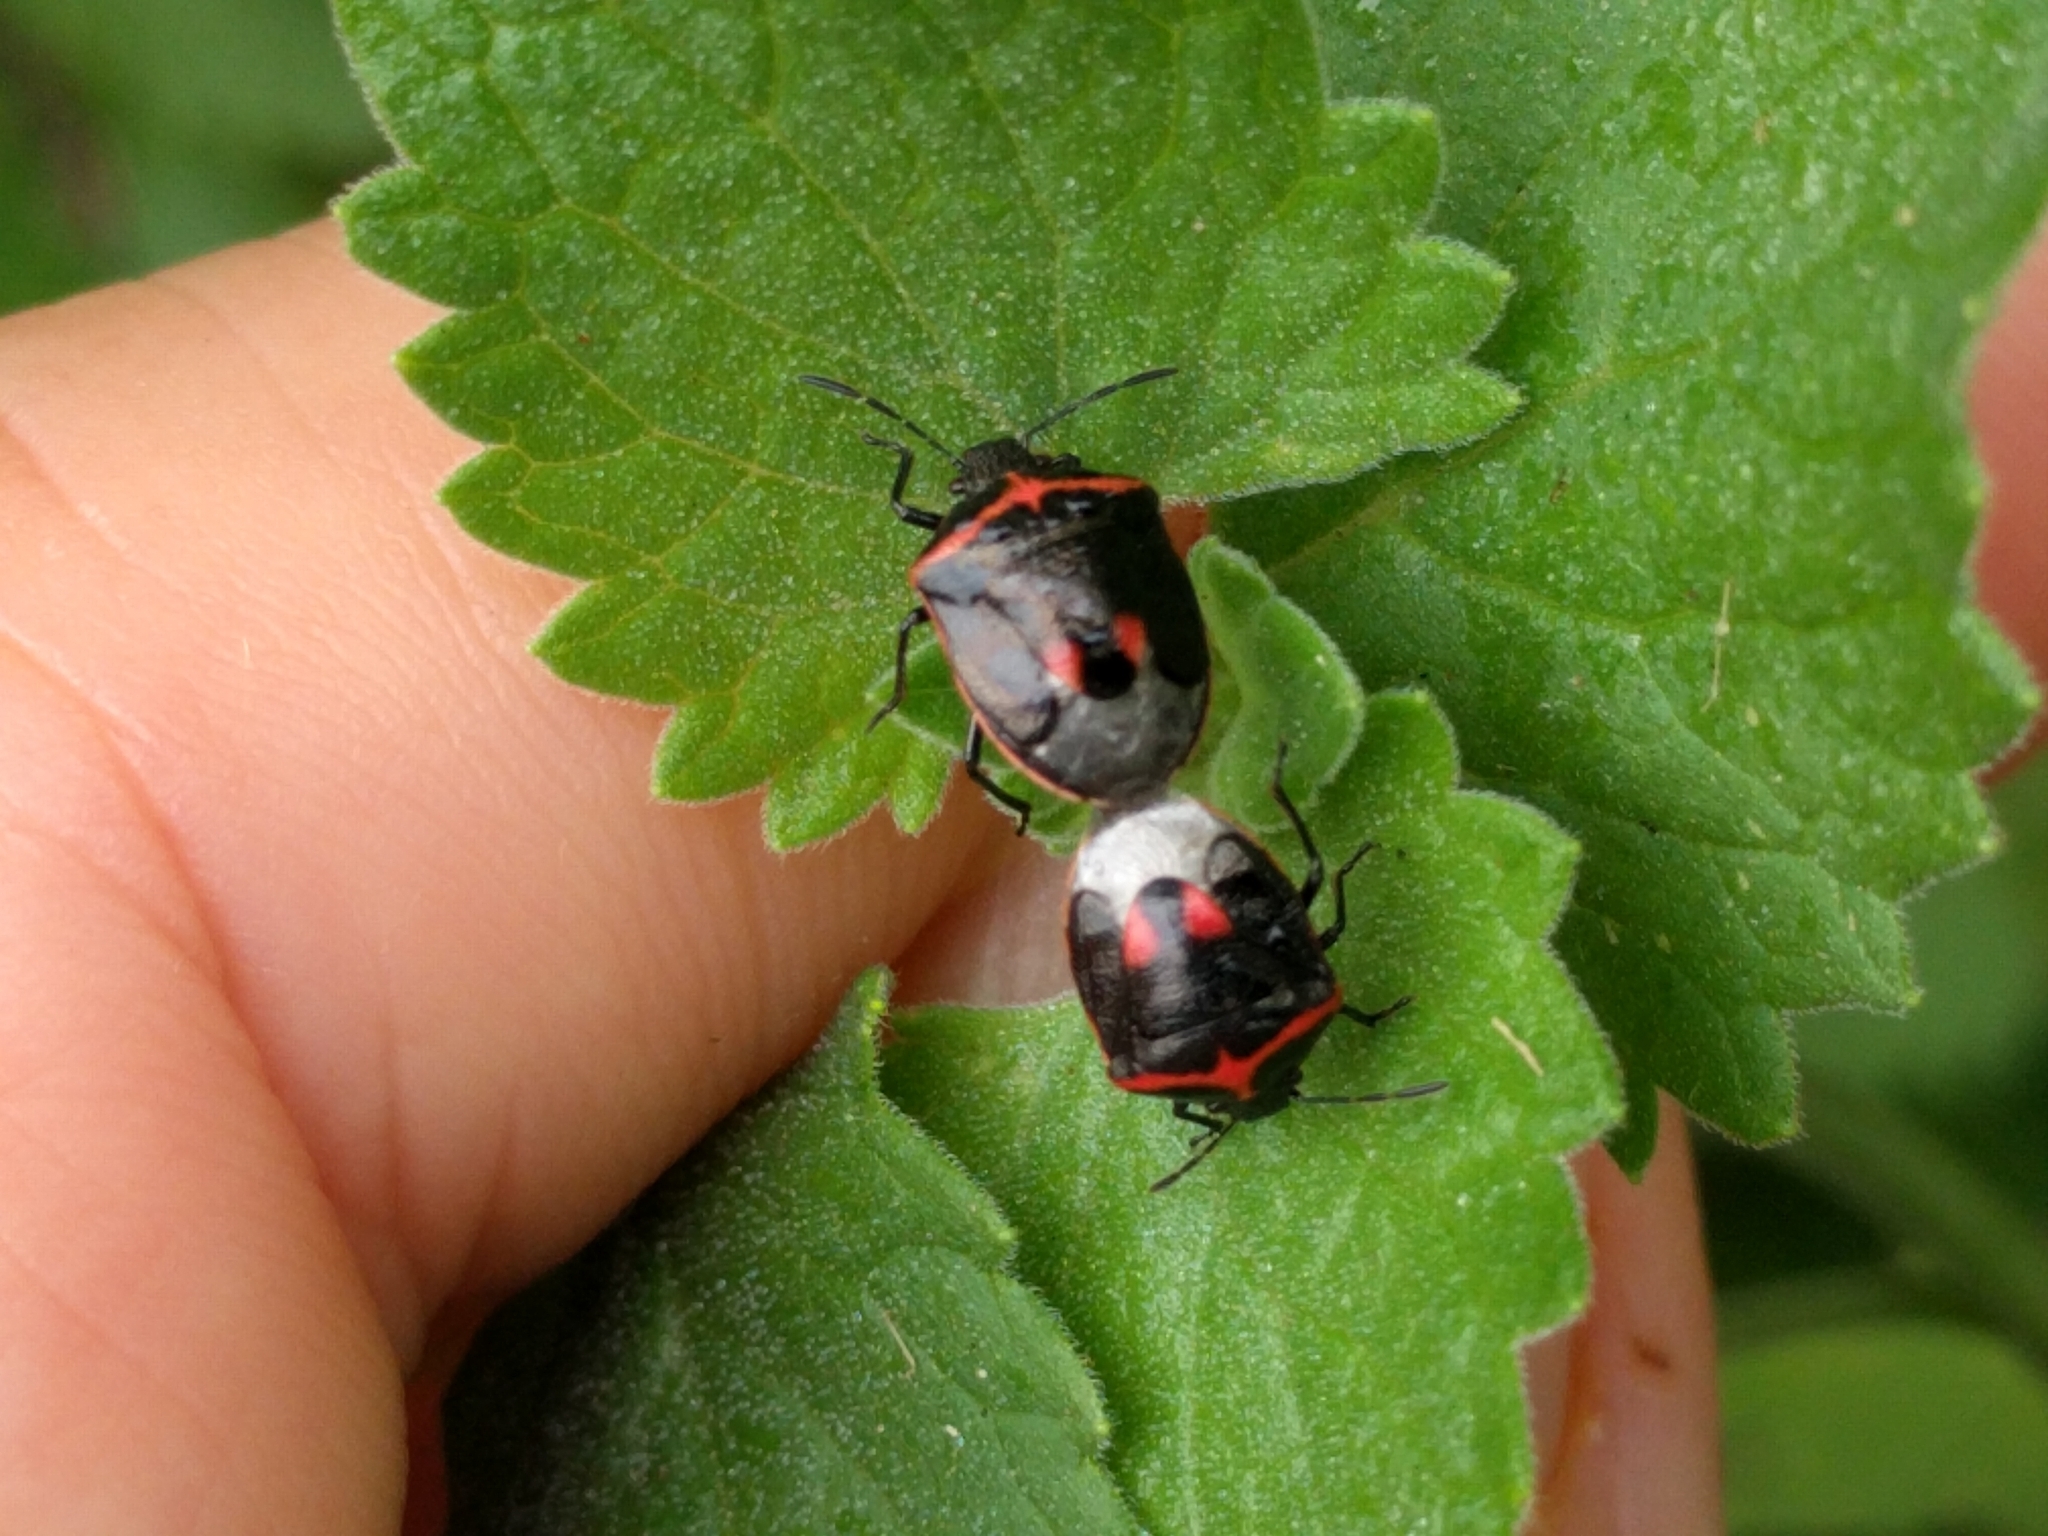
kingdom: Animalia
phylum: Arthropoda
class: Insecta
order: Hemiptera
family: Pentatomidae
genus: Cosmopepla
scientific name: Cosmopepla lintneriana
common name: Twice-stabbed stink bug
